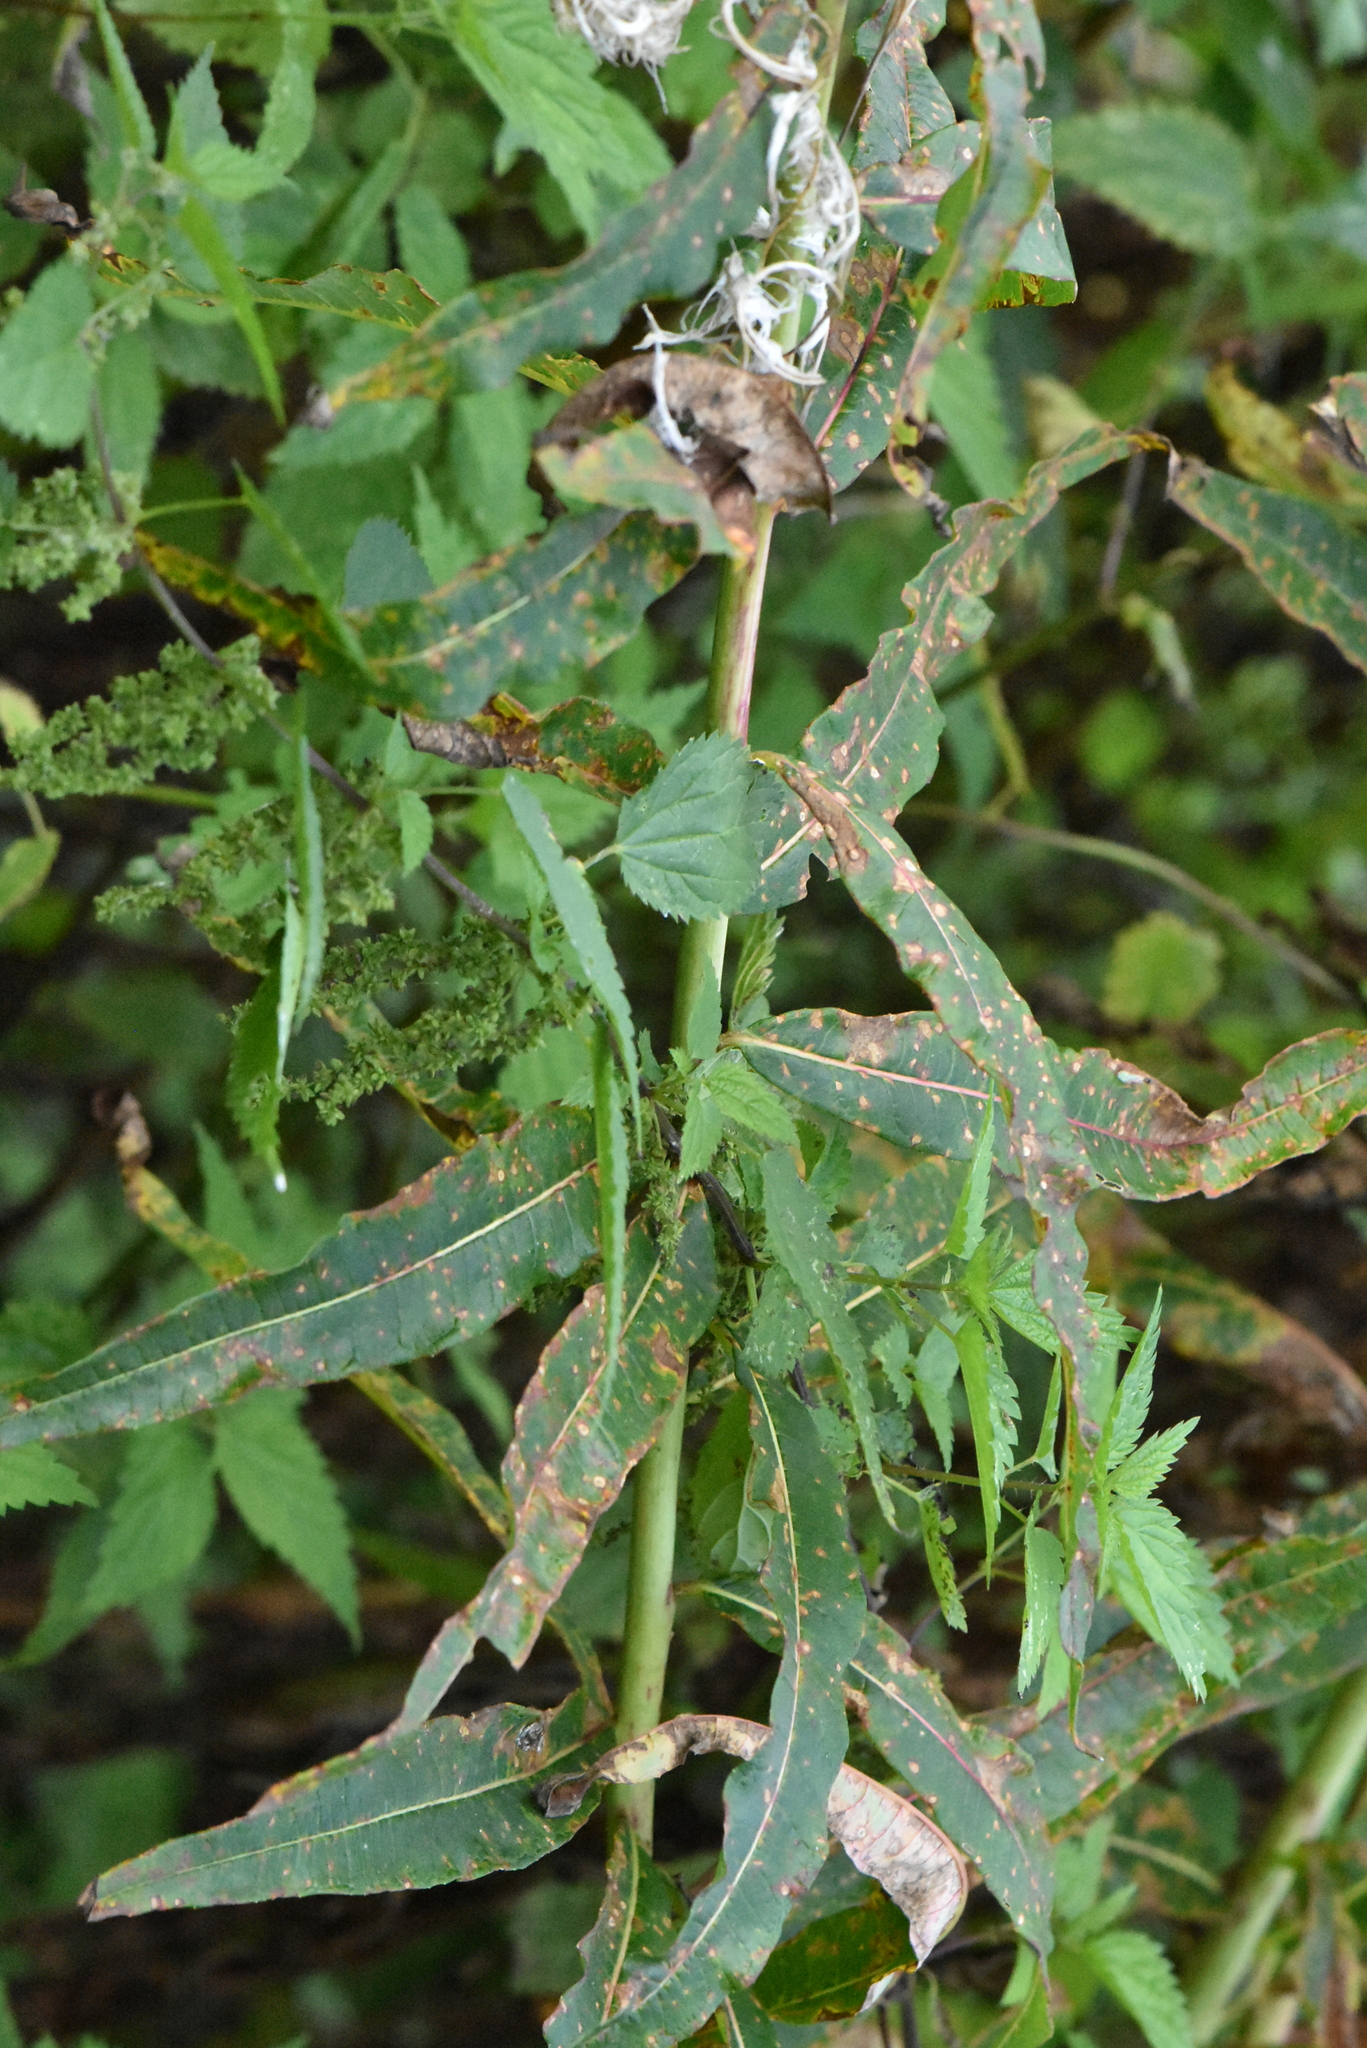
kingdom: Plantae
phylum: Tracheophyta
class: Magnoliopsida
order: Myrtales
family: Onagraceae
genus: Chamaenerion
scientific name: Chamaenerion angustifolium
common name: Fireweed
